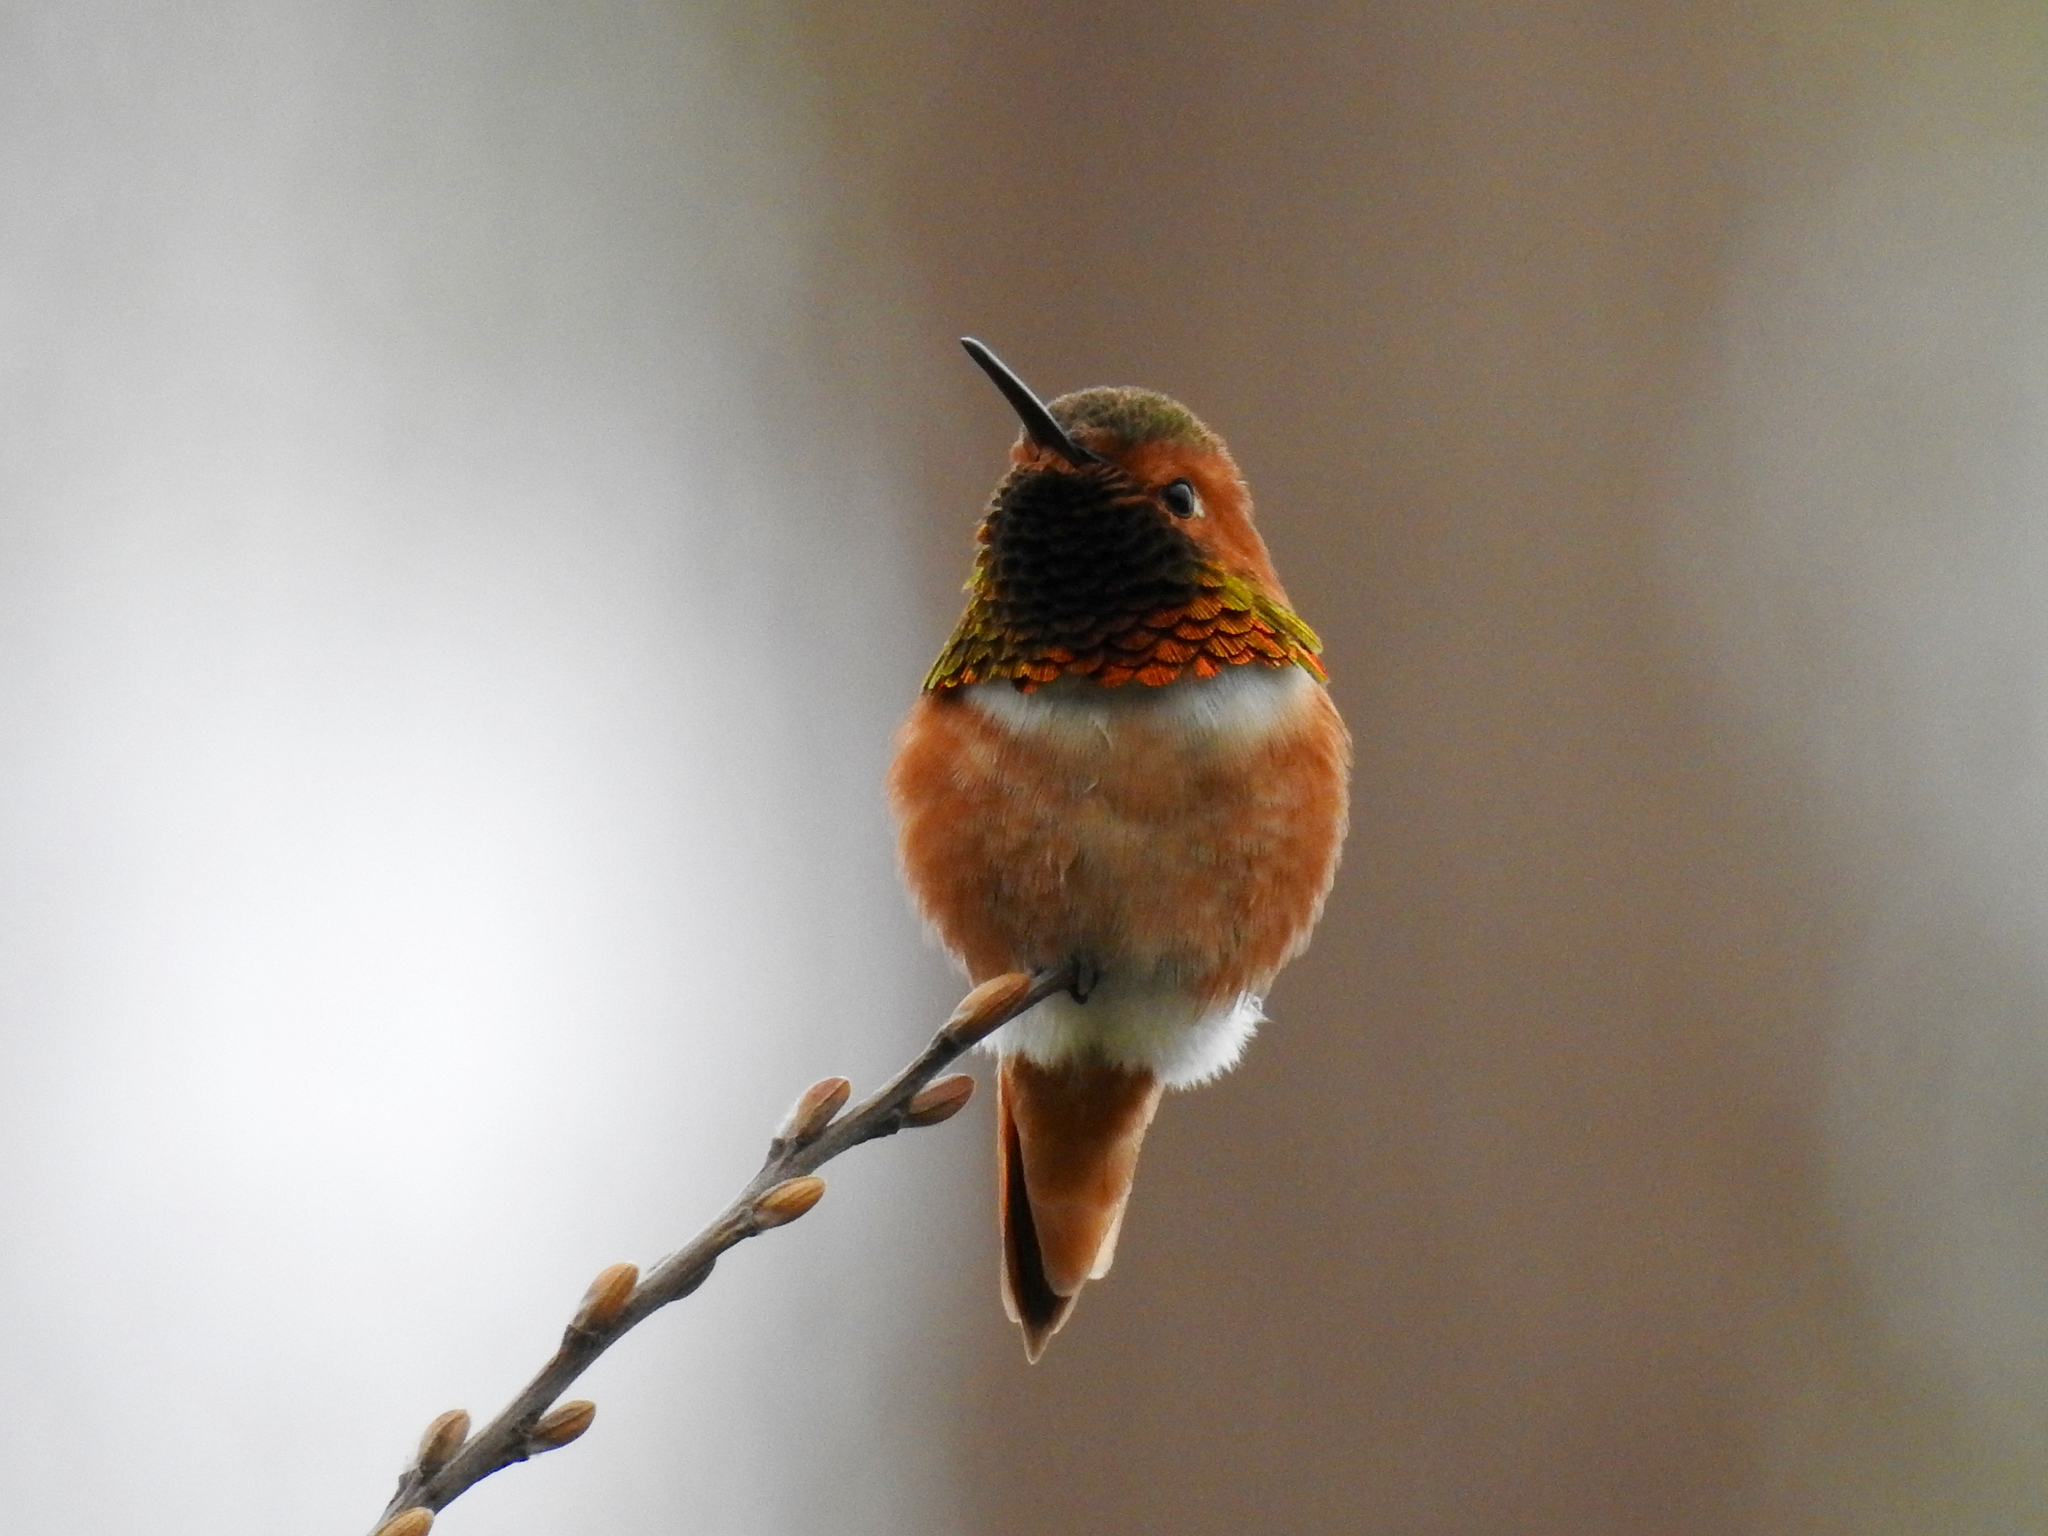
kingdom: Animalia
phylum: Chordata
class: Aves
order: Apodiformes
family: Trochilidae
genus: Selasphorus
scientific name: Selasphorus sasin
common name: Allen's hummingbird
